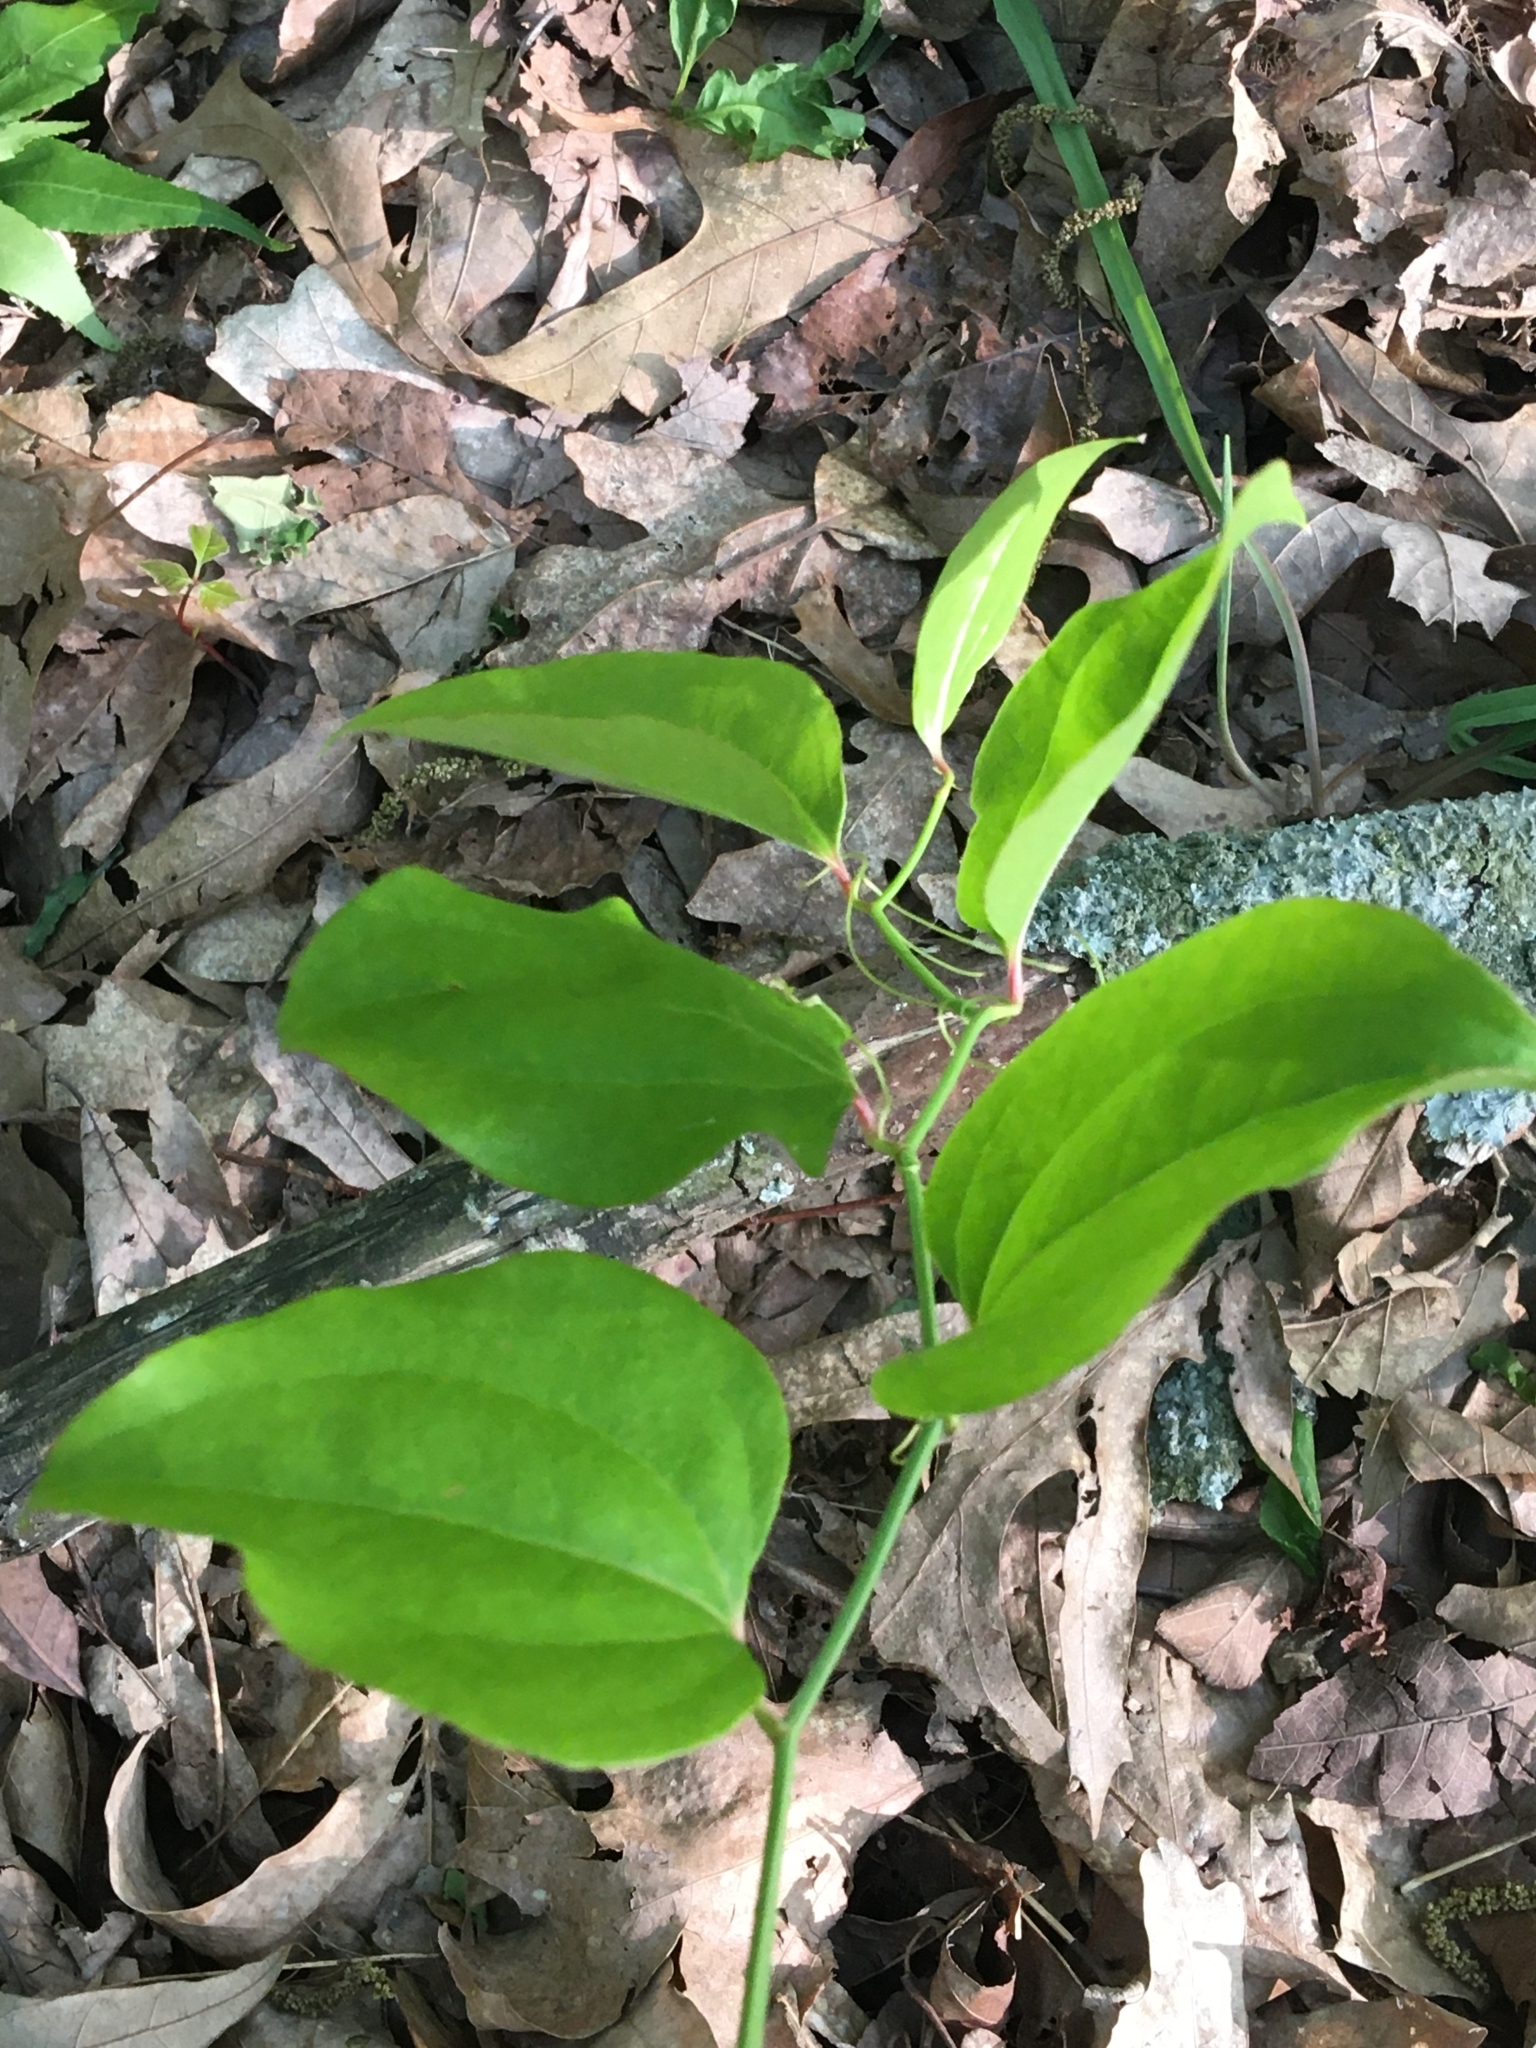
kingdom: Plantae
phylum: Tracheophyta
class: Liliopsida
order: Liliales
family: Smilacaceae
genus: Smilax
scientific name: Smilax rotundifolia
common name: Bullbriar
